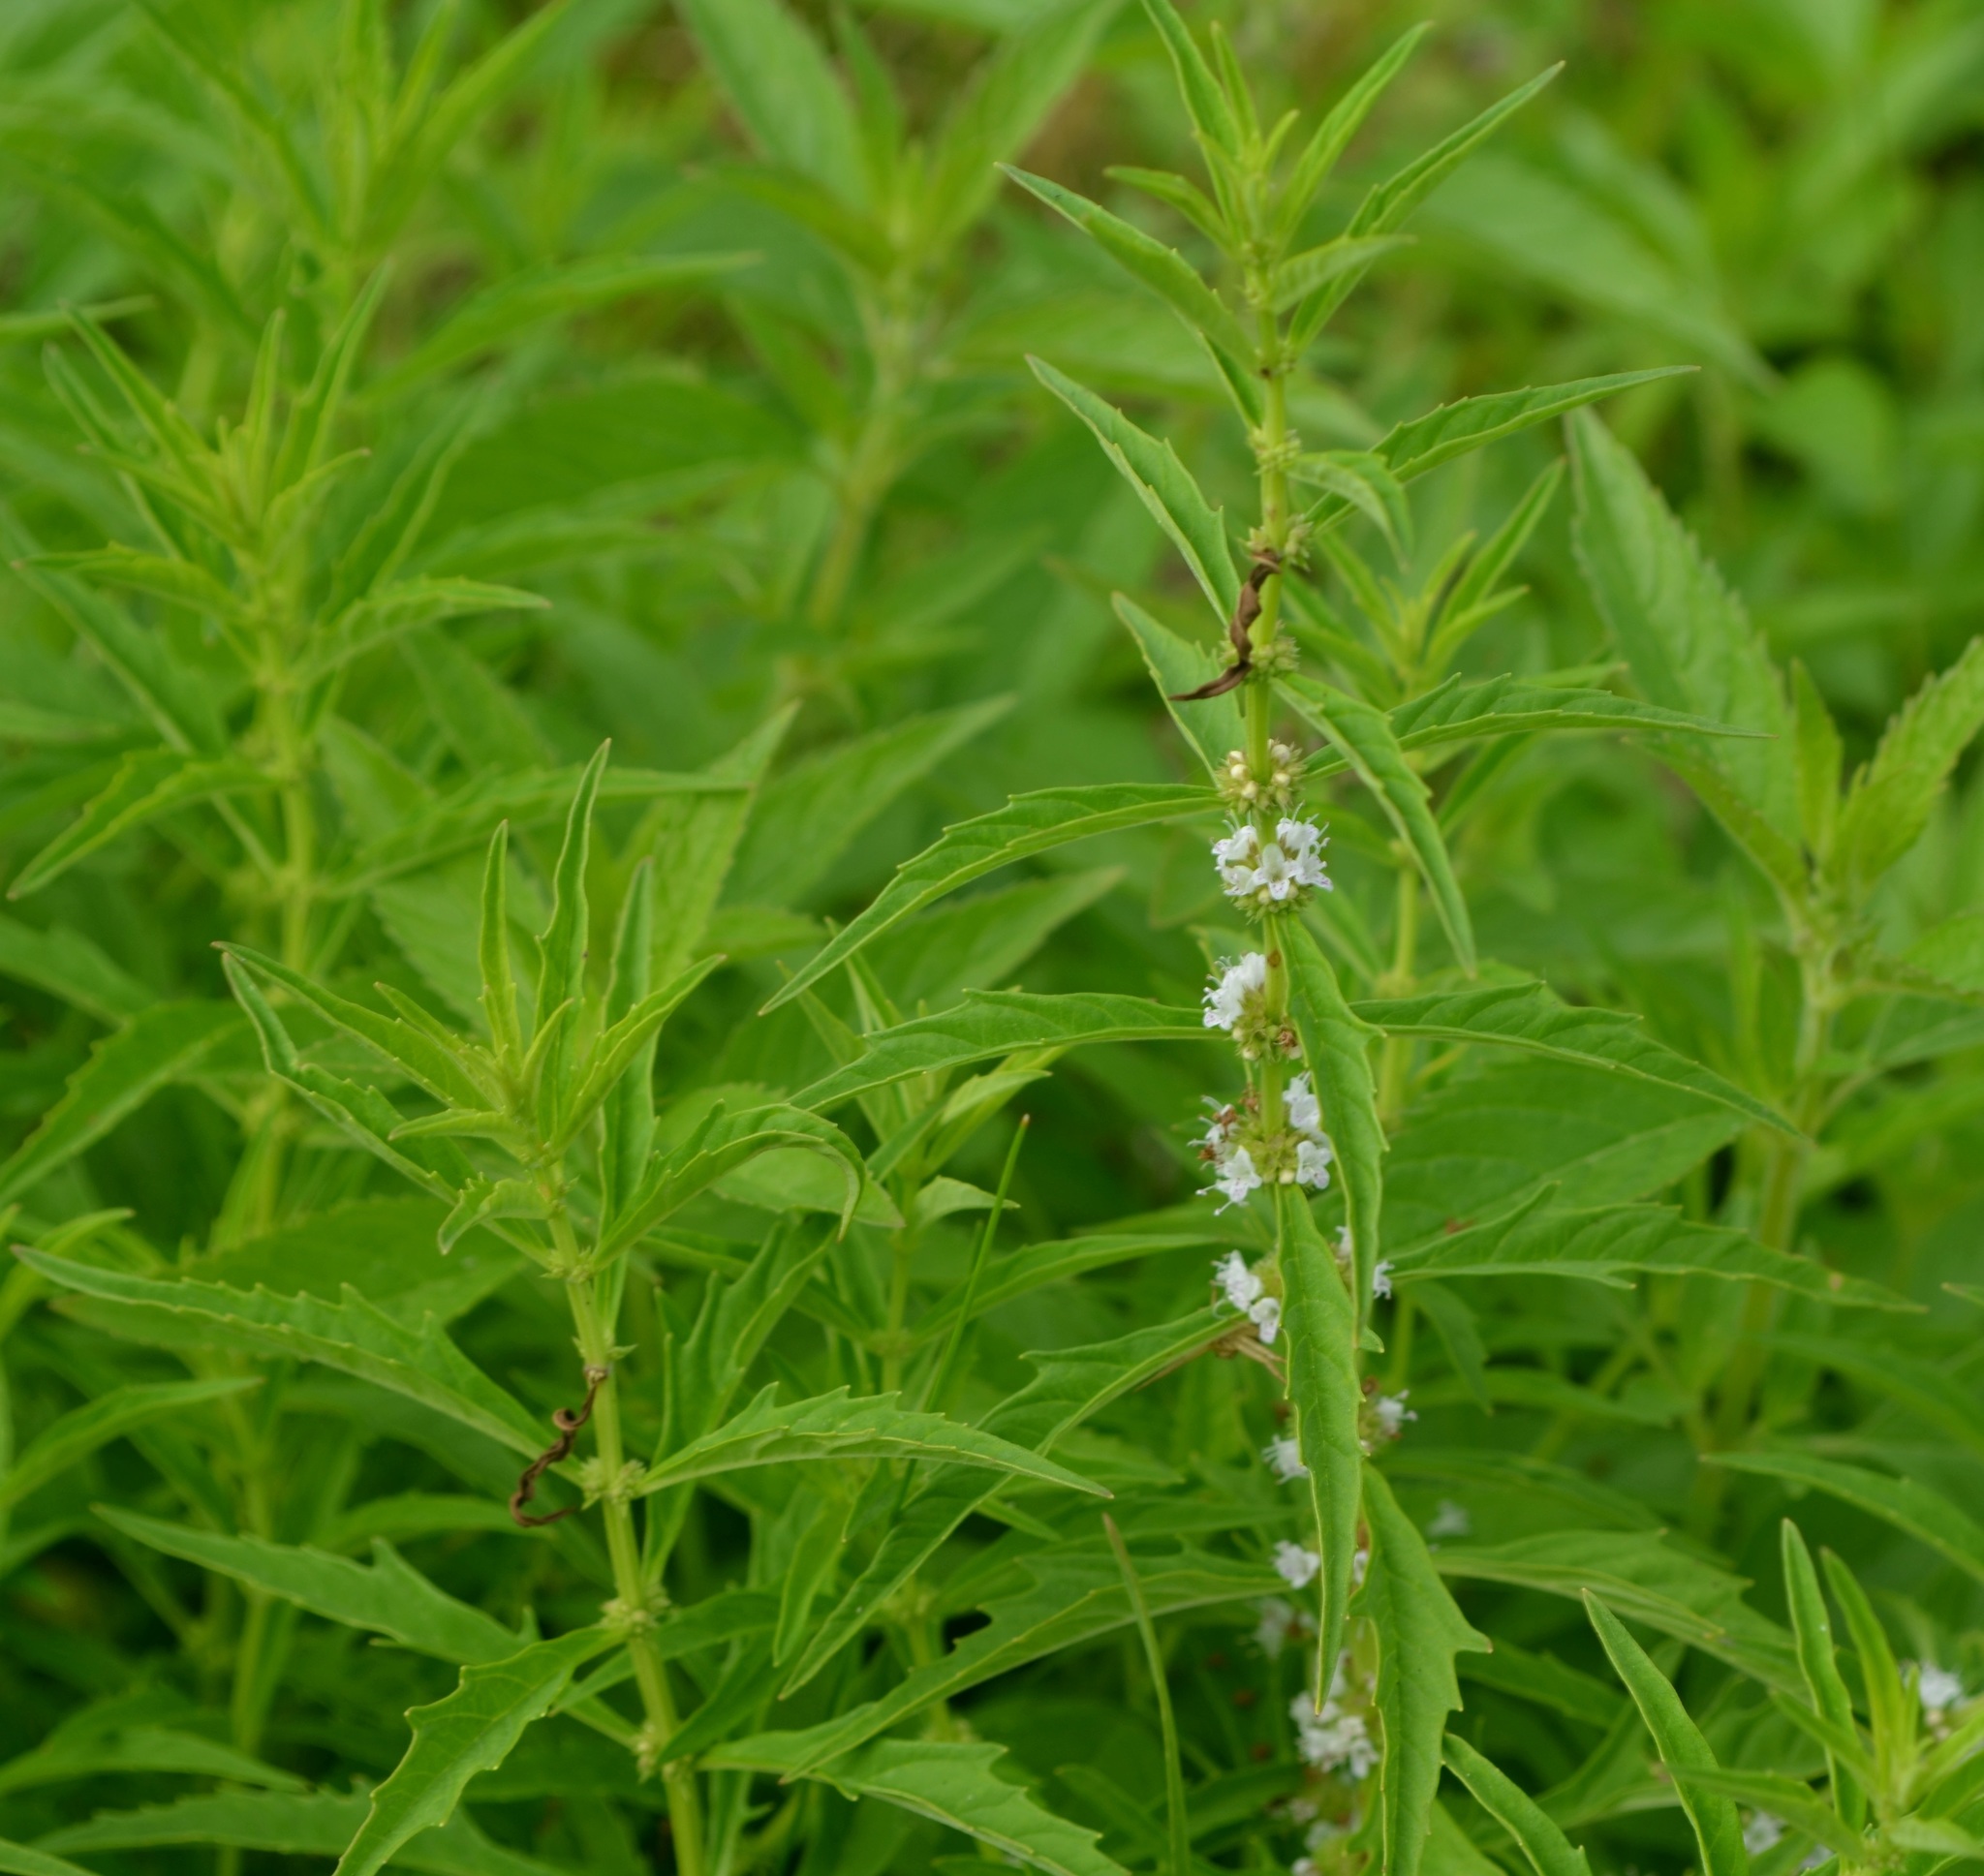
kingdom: Plantae
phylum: Tracheophyta
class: Magnoliopsida
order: Lamiales
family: Lamiaceae
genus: Lycopus
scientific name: Lycopus americanus
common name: American bugleweed
